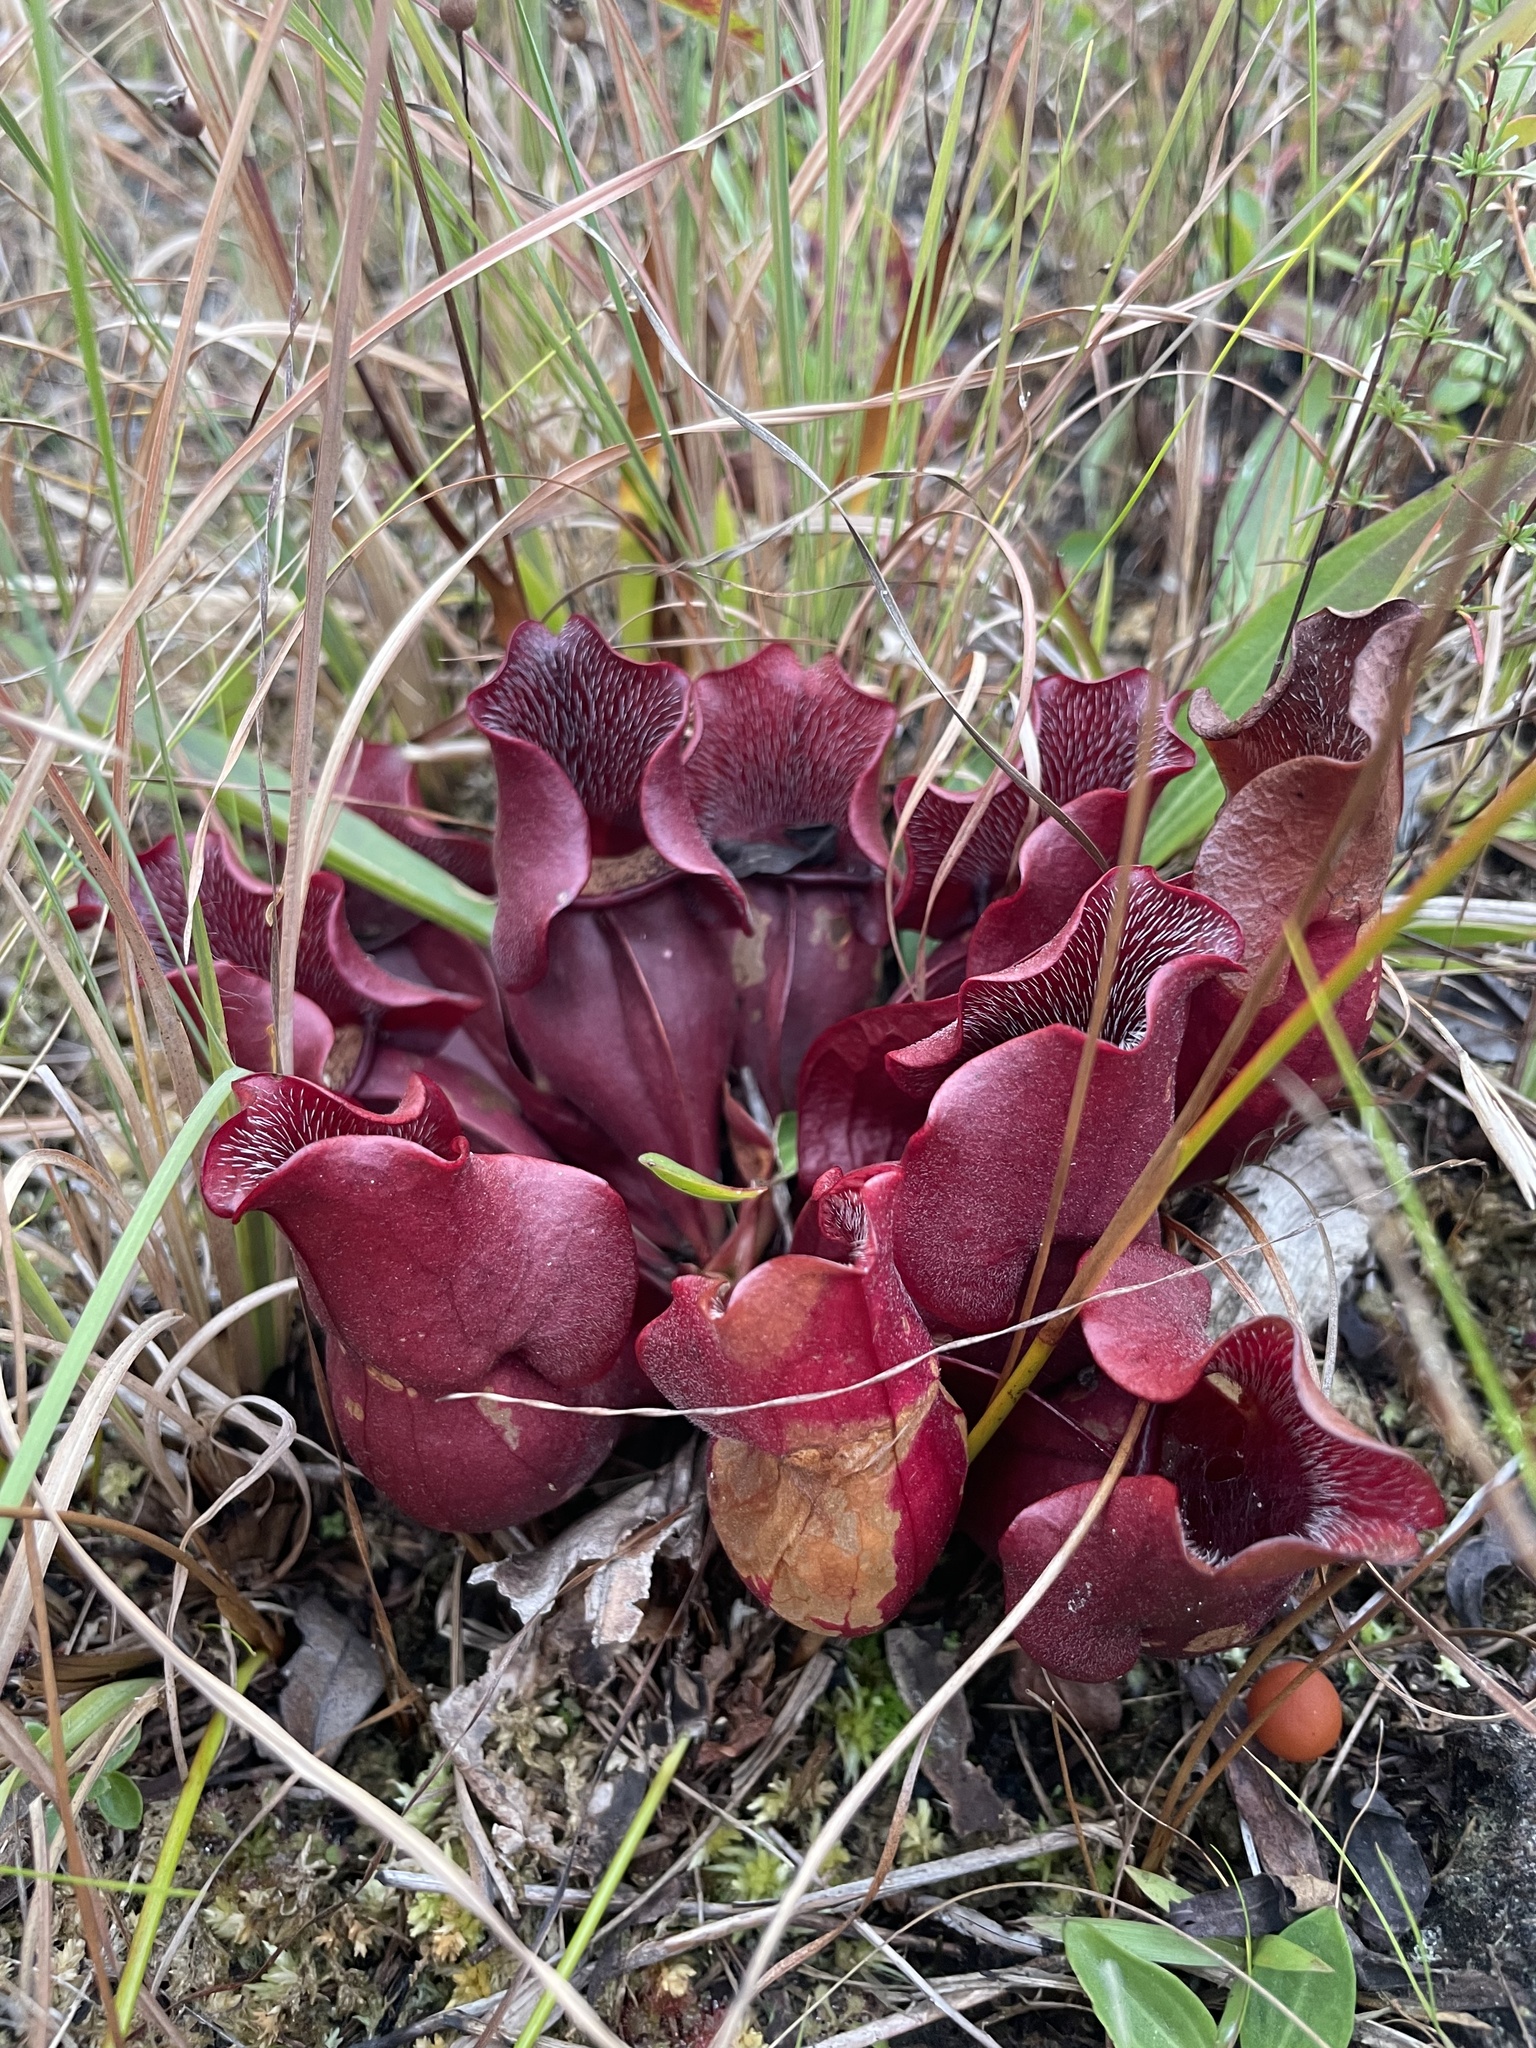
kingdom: Plantae
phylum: Tracheophyta
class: Magnoliopsida
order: Ericales
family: Sarraceniaceae
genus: Sarracenia
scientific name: Sarracenia purpurea
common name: Pitcherplant
